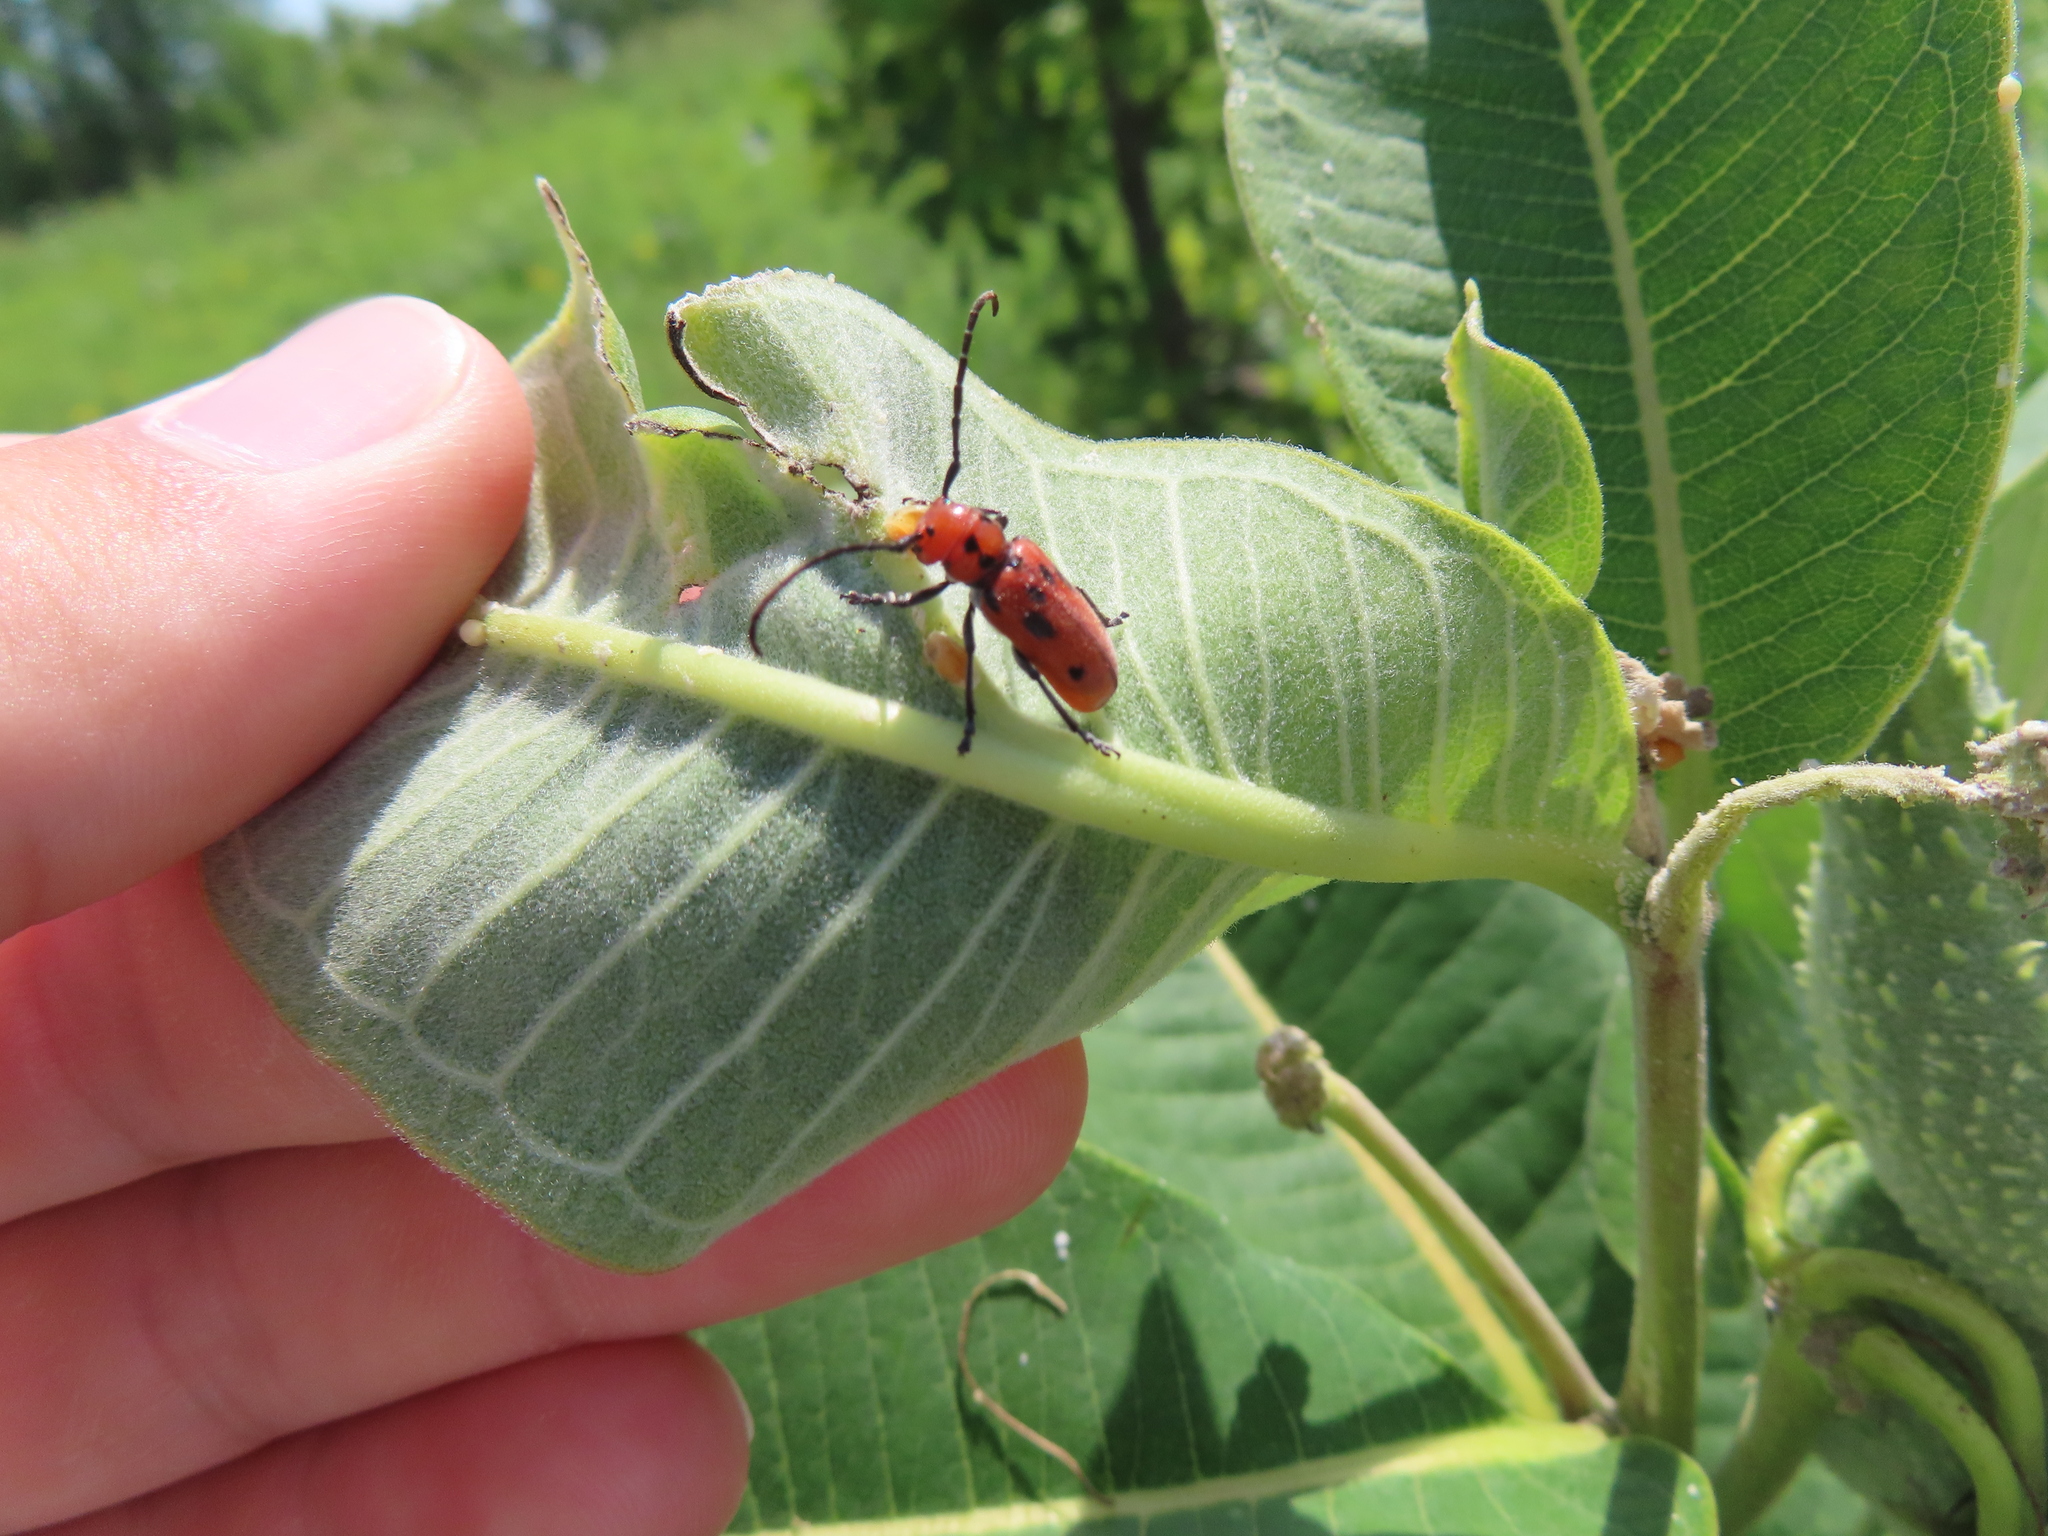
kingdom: Animalia
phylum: Arthropoda
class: Insecta
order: Coleoptera
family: Cerambycidae
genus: Tetraopes
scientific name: Tetraopes tetrophthalmus
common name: Red milkweed beetle
